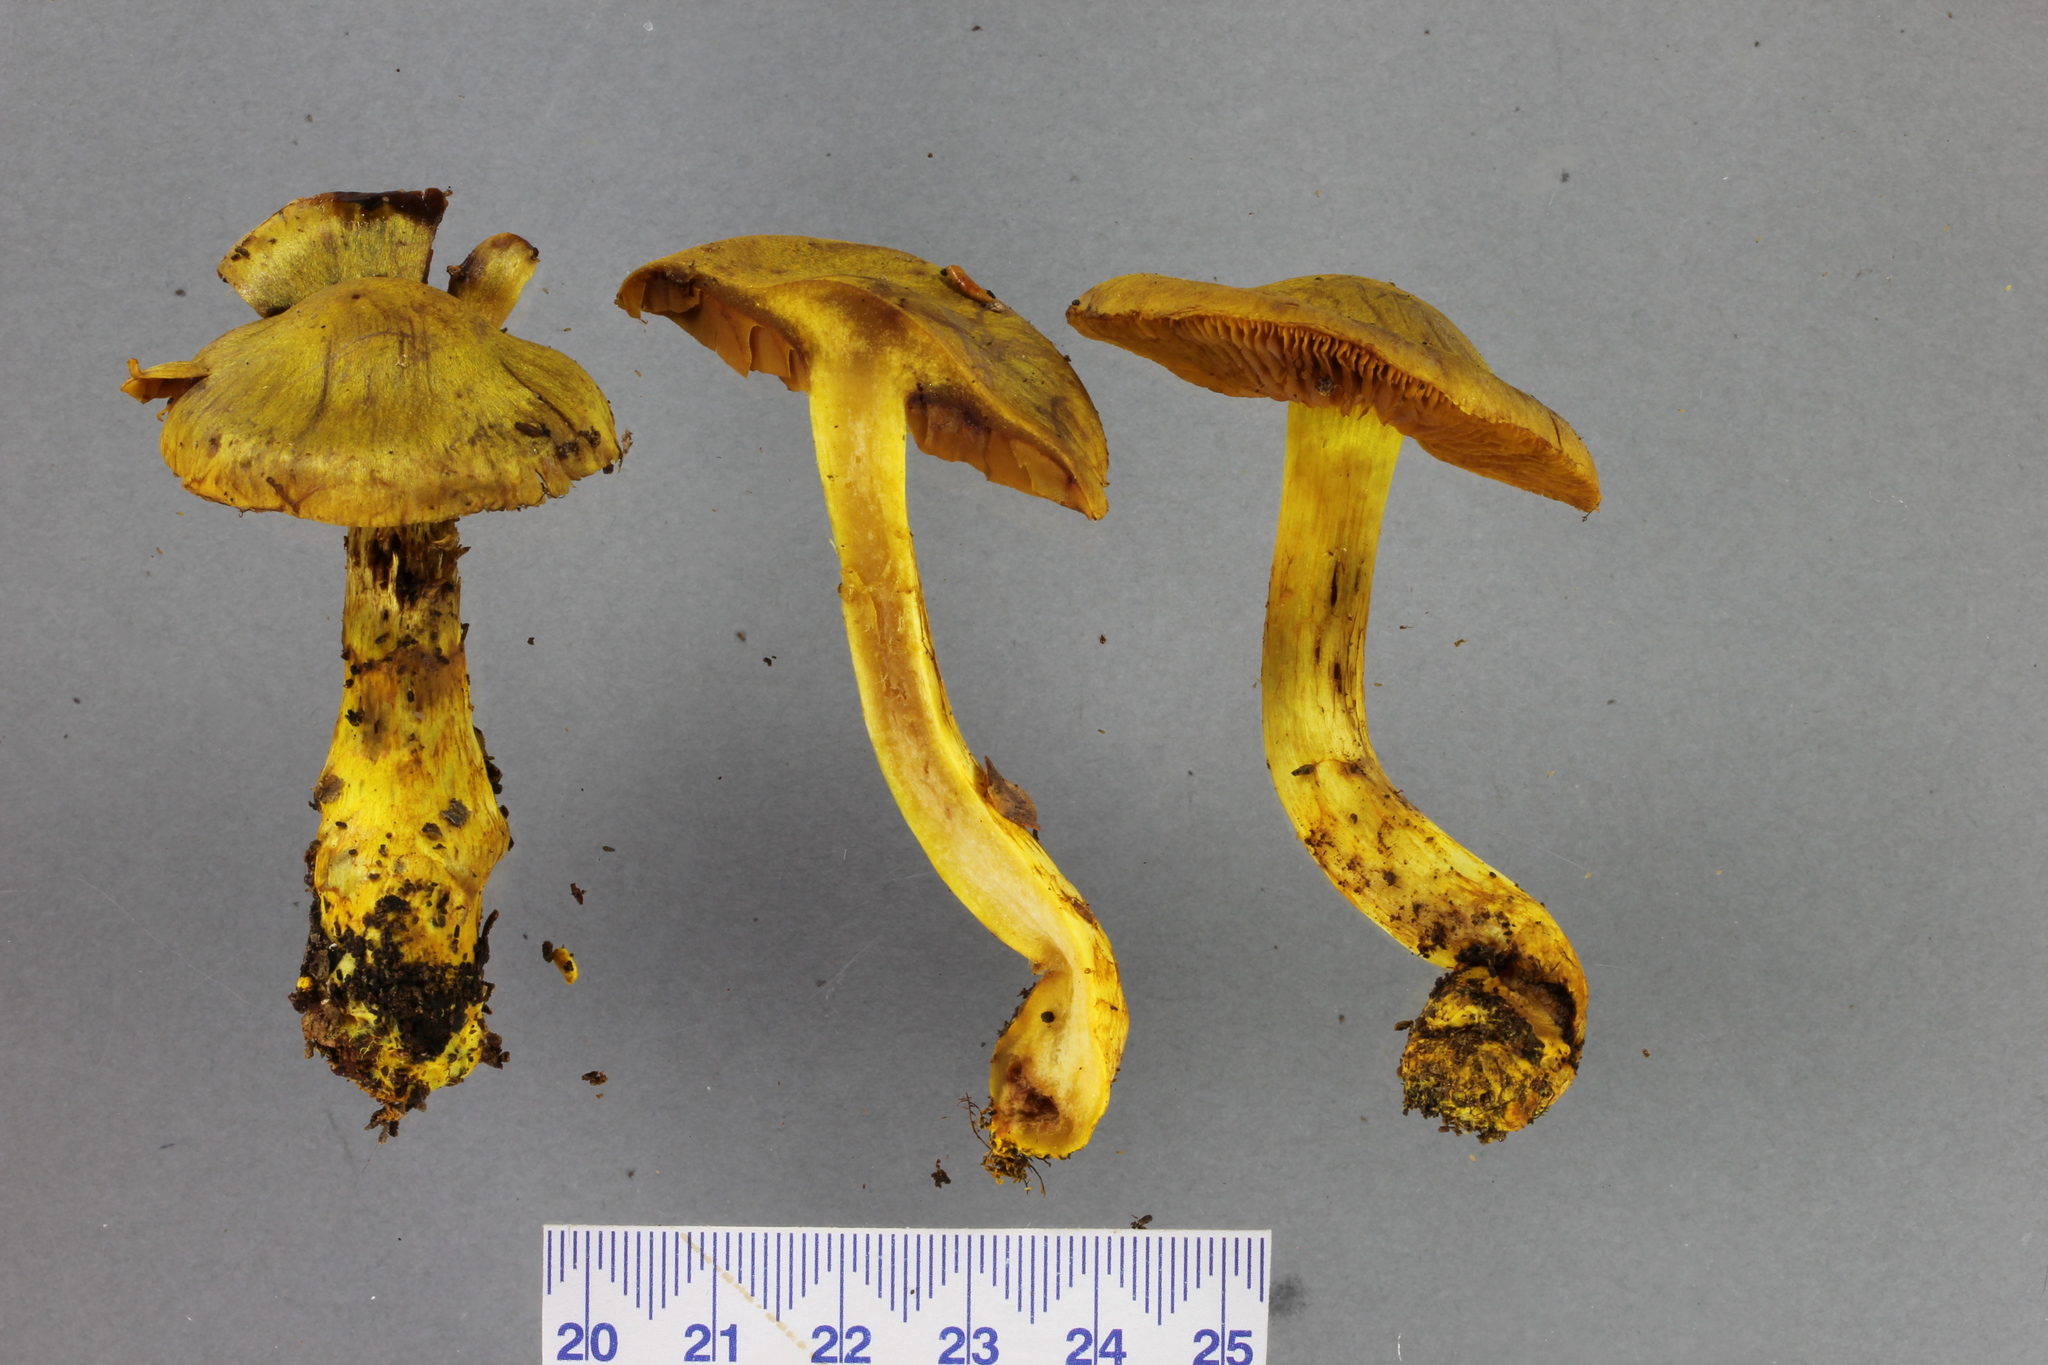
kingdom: Fungi
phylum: Basidiomycota
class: Agaricomycetes
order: Agaricales
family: Cortinariaceae
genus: Cortinarius
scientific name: Cortinarius canarius
